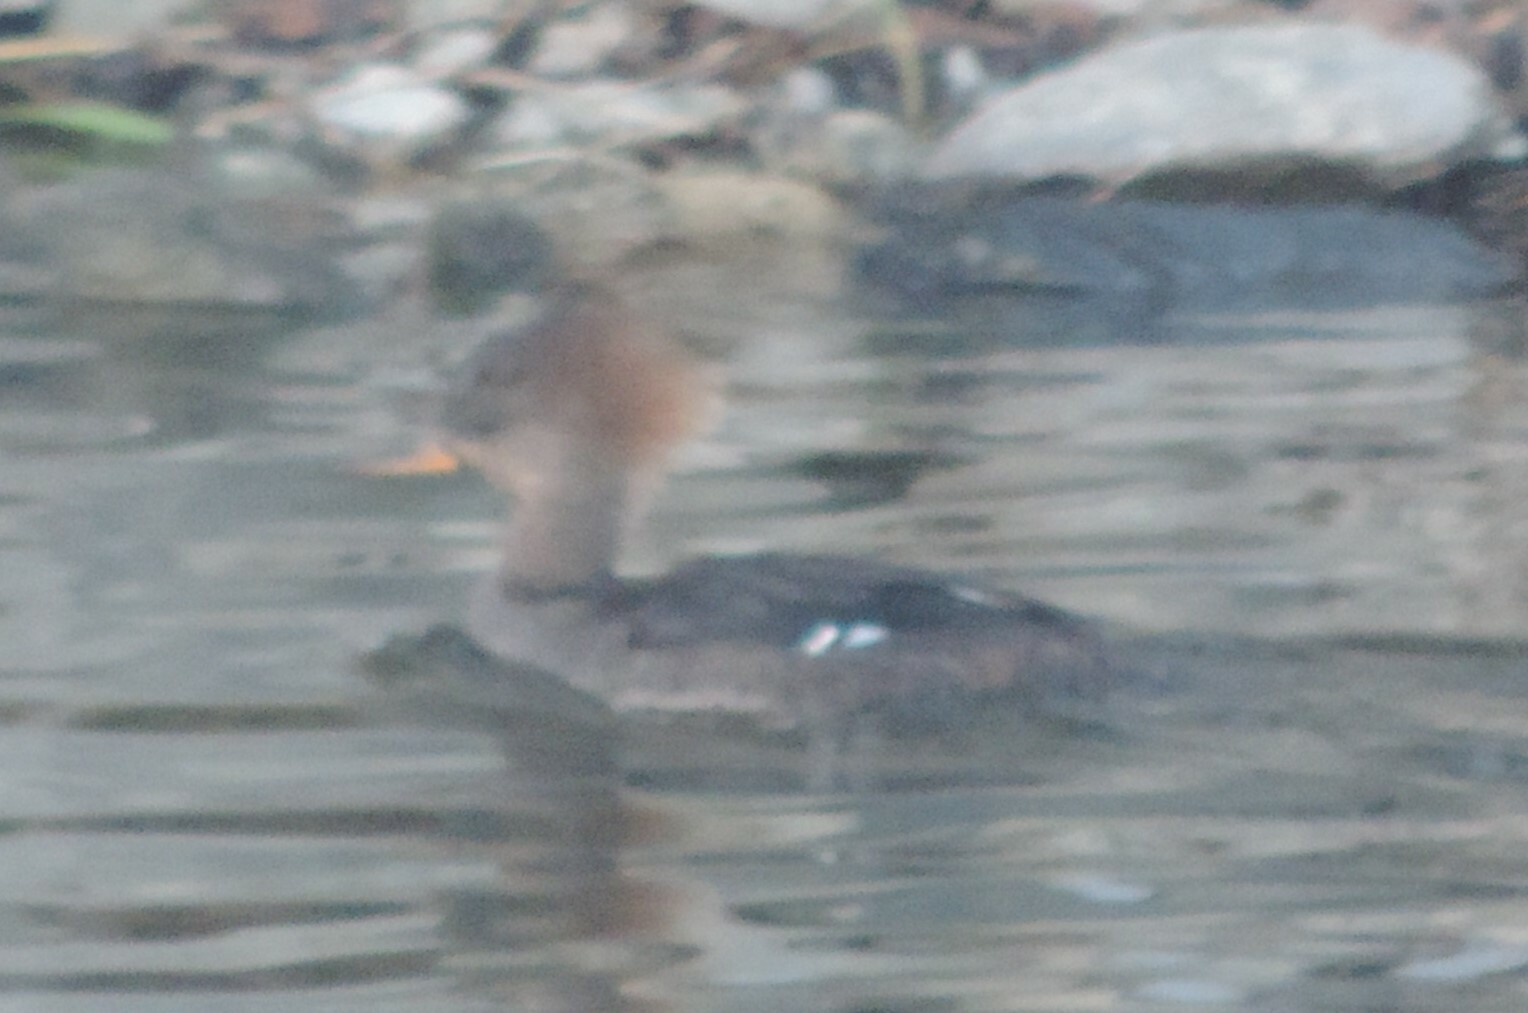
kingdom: Animalia
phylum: Chordata
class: Aves
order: Anseriformes
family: Anatidae
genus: Lophodytes
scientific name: Lophodytes cucullatus
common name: Hooded merganser
